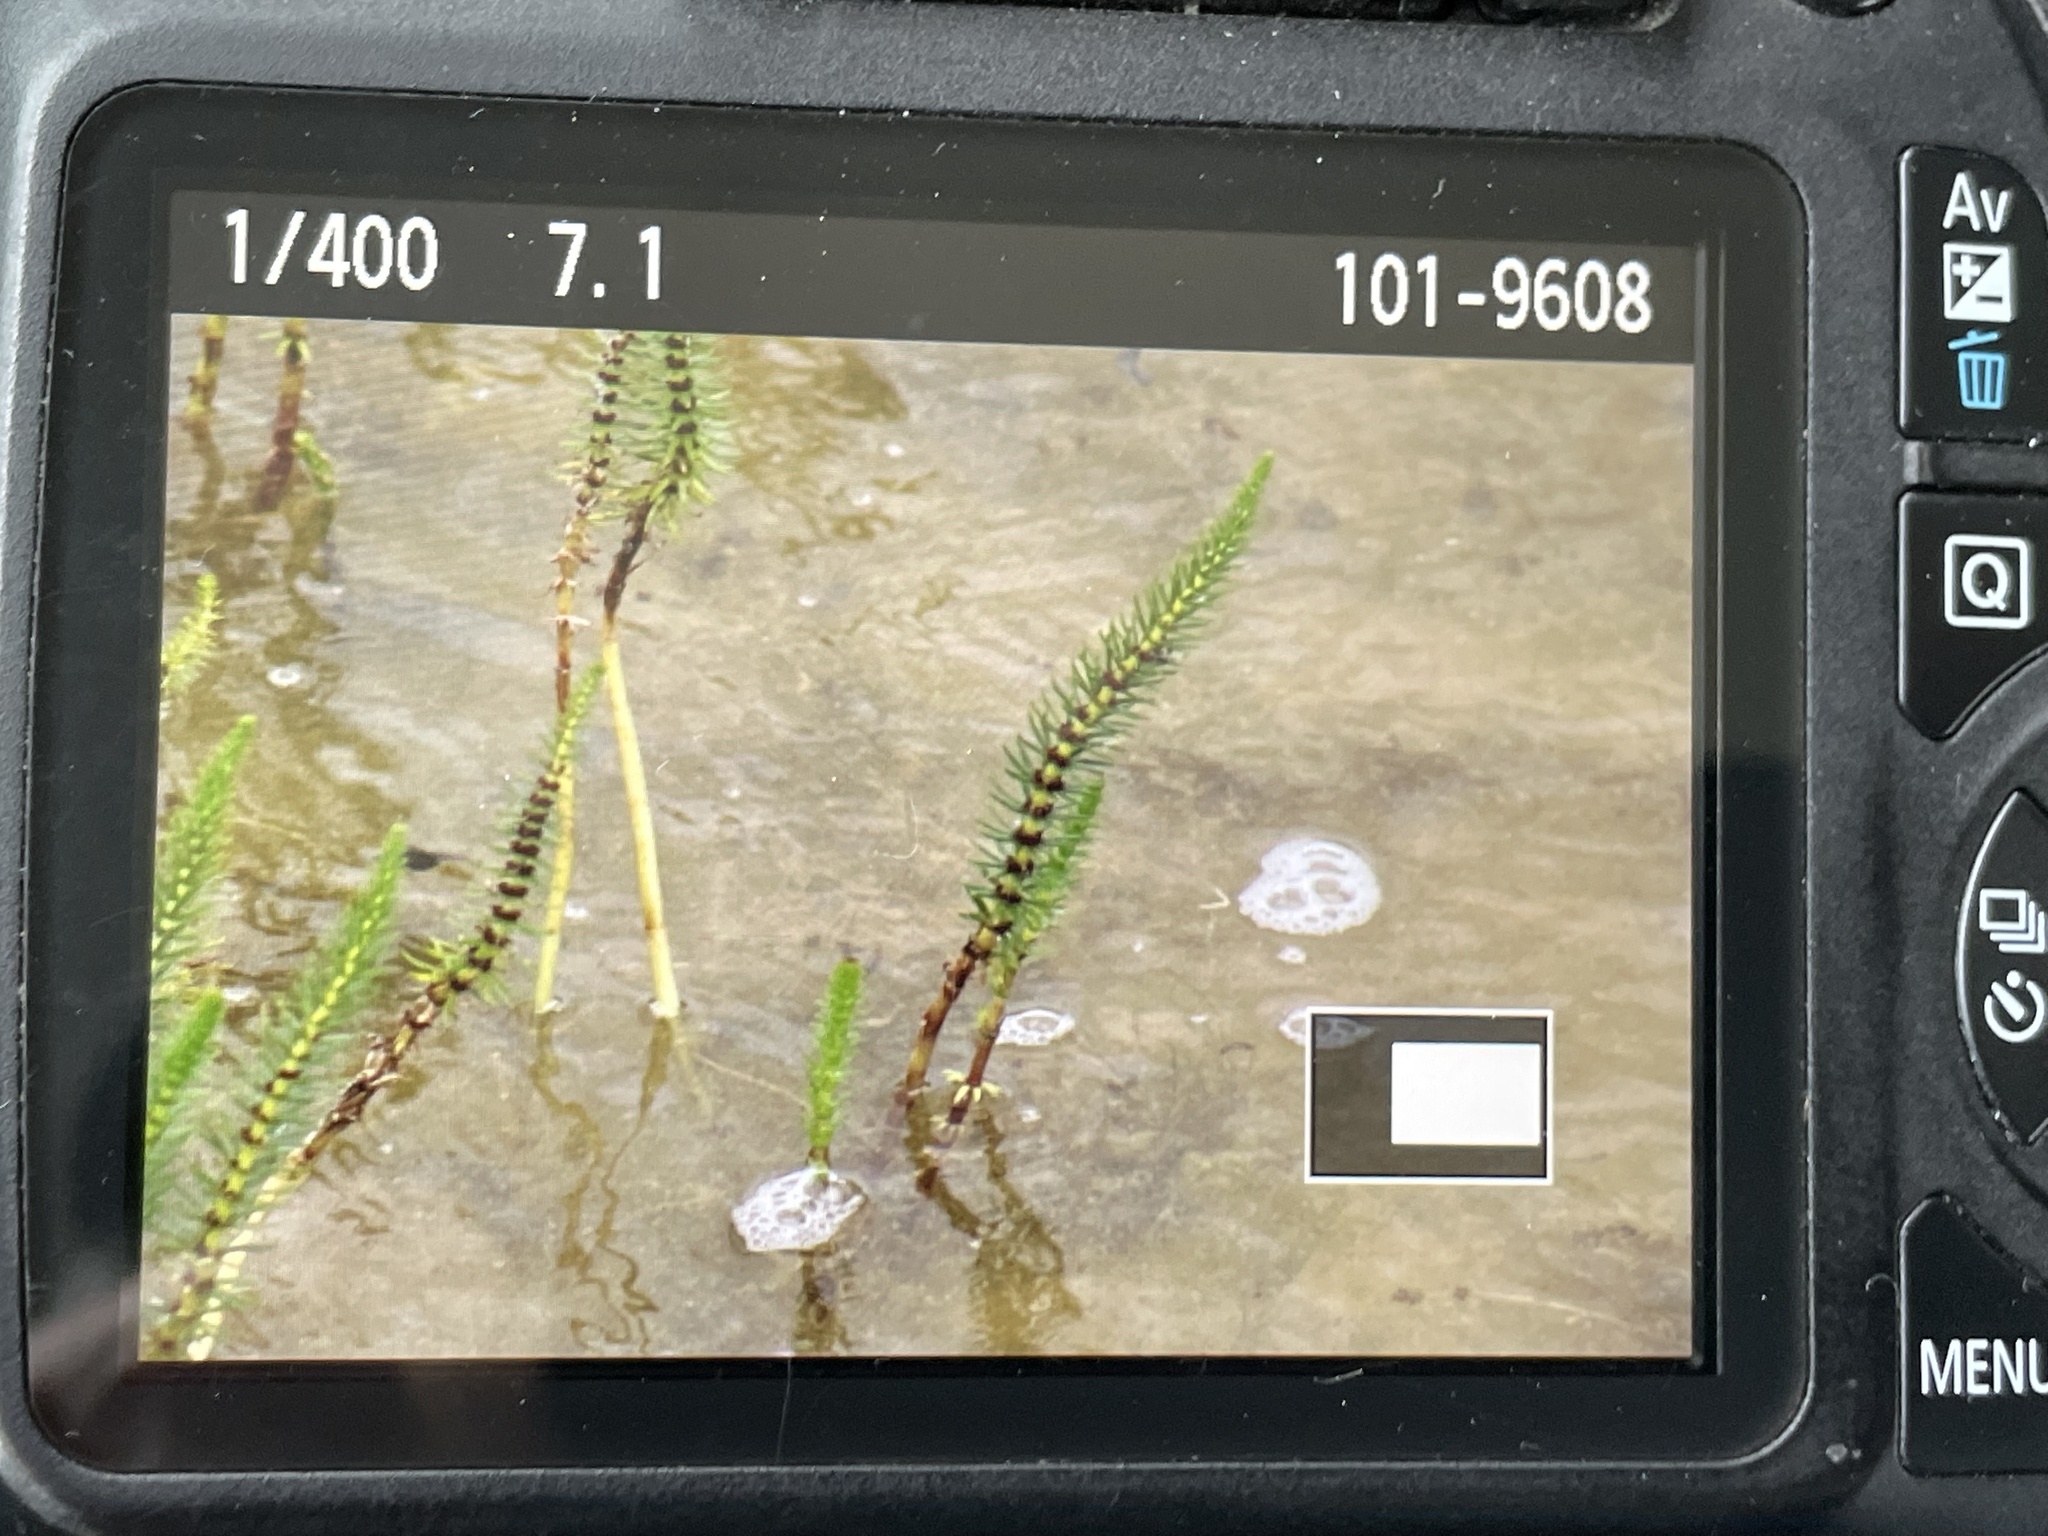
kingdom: Plantae
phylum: Tracheophyta
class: Magnoliopsida
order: Lamiales
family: Plantaginaceae
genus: Hippuris
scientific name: Hippuris vulgaris
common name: Mare's-tail
